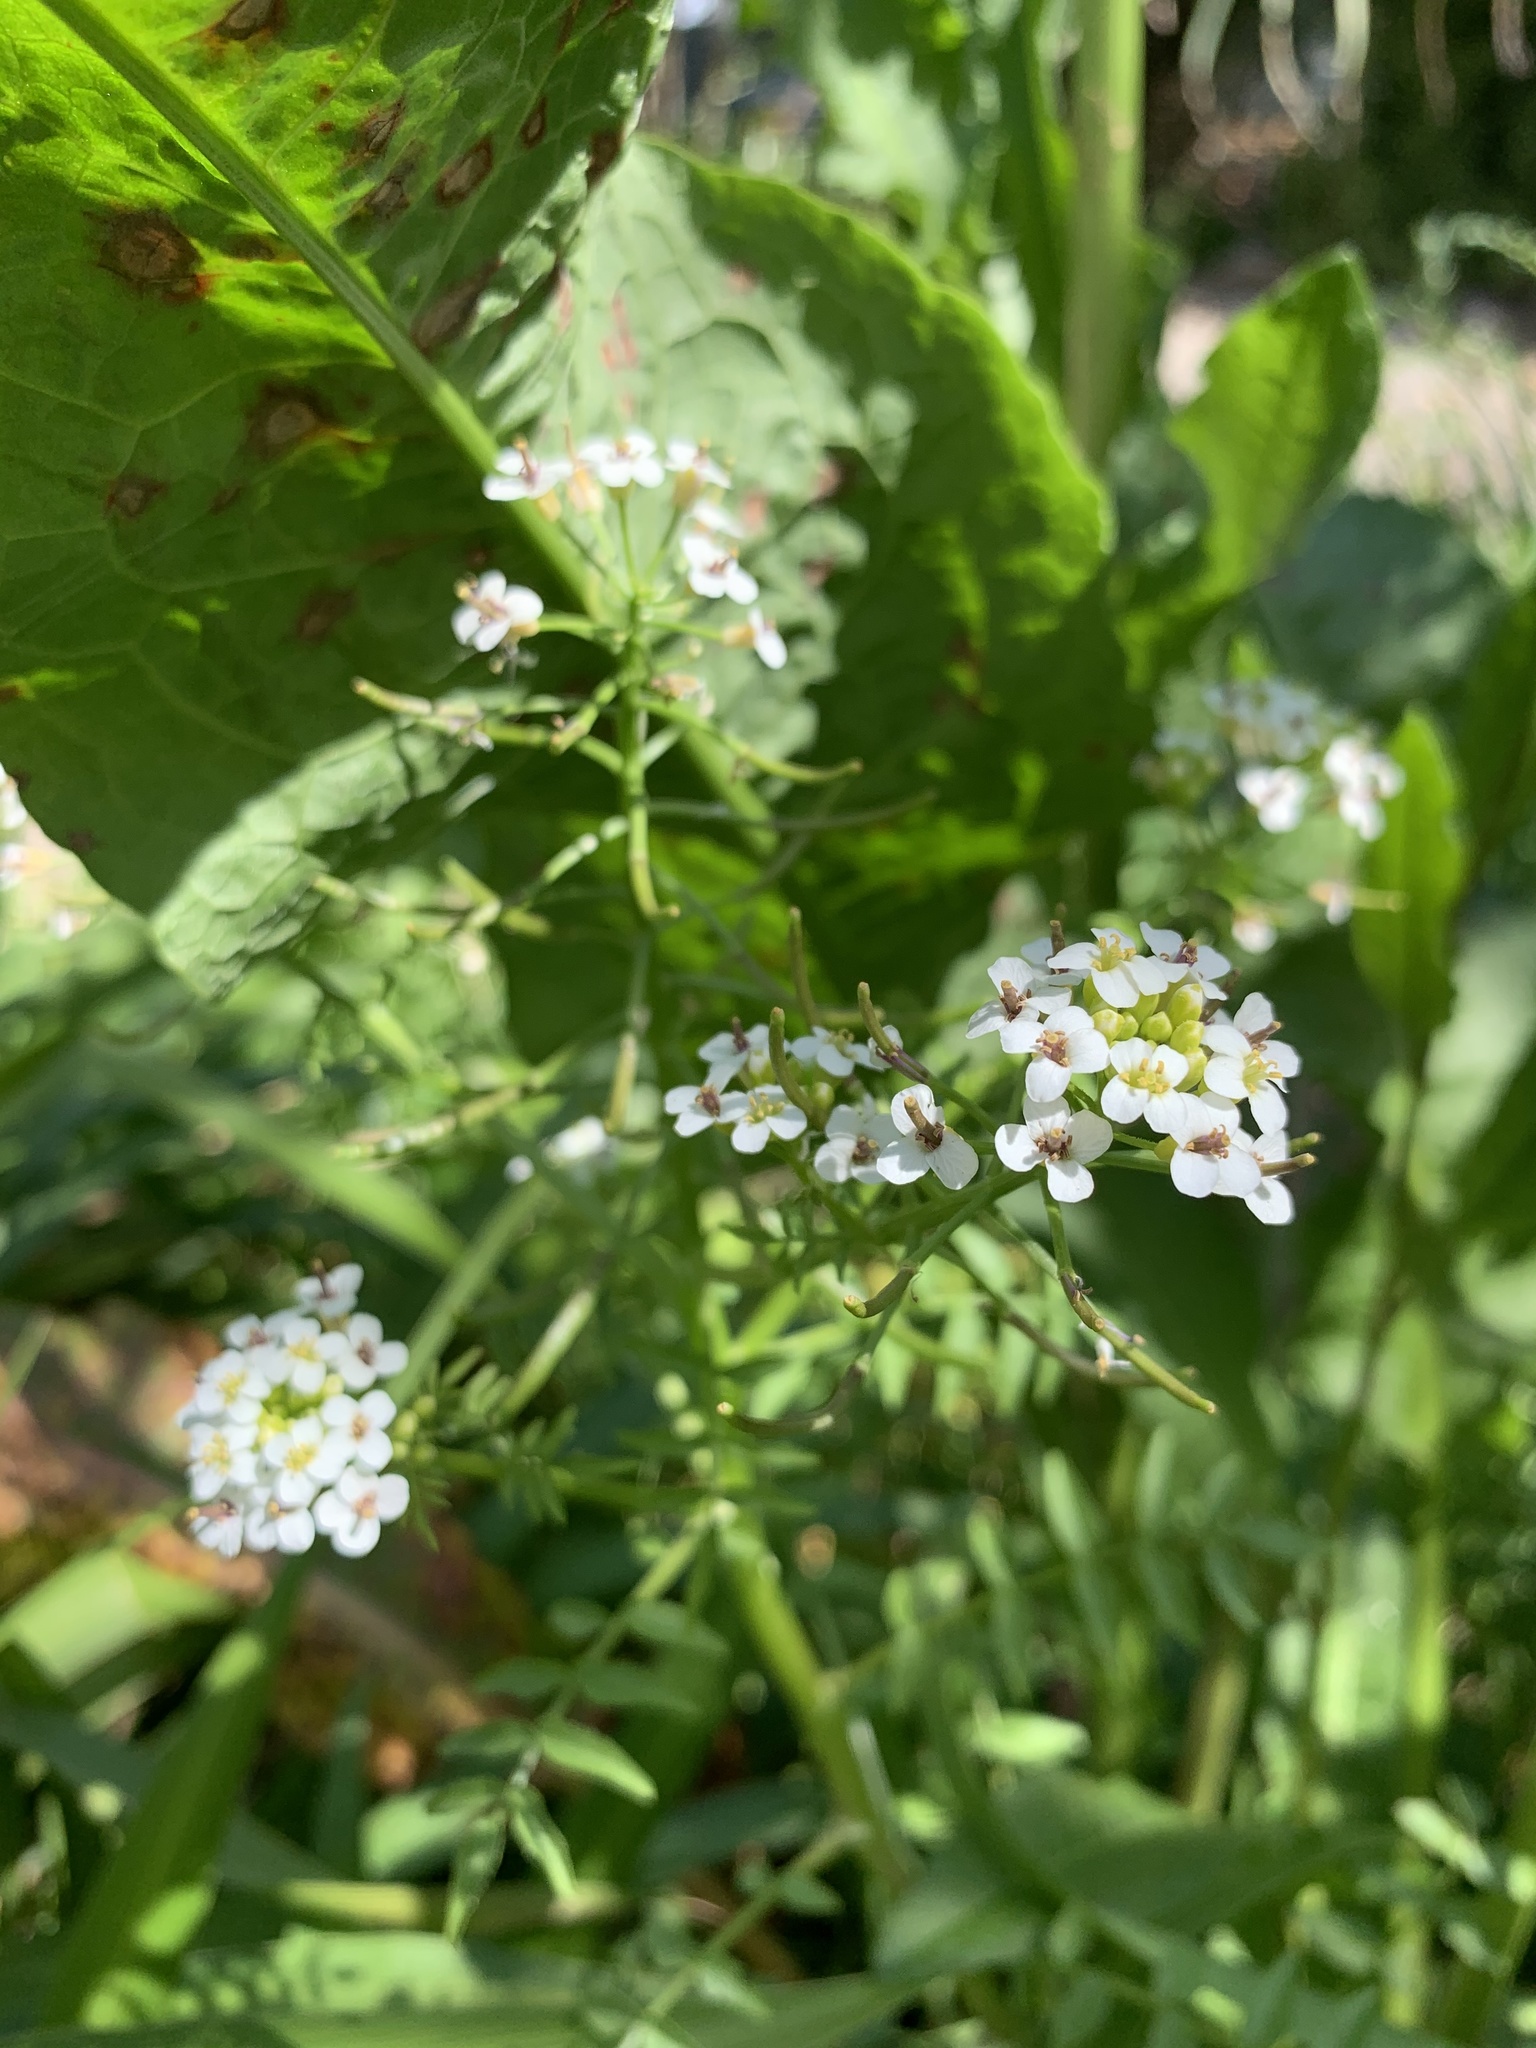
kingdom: Plantae
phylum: Tracheophyta
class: Magnoliopsida
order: Brassicales
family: Brassicaceae
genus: Nasturtium
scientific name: Nasturtium officinale
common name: Watercress
